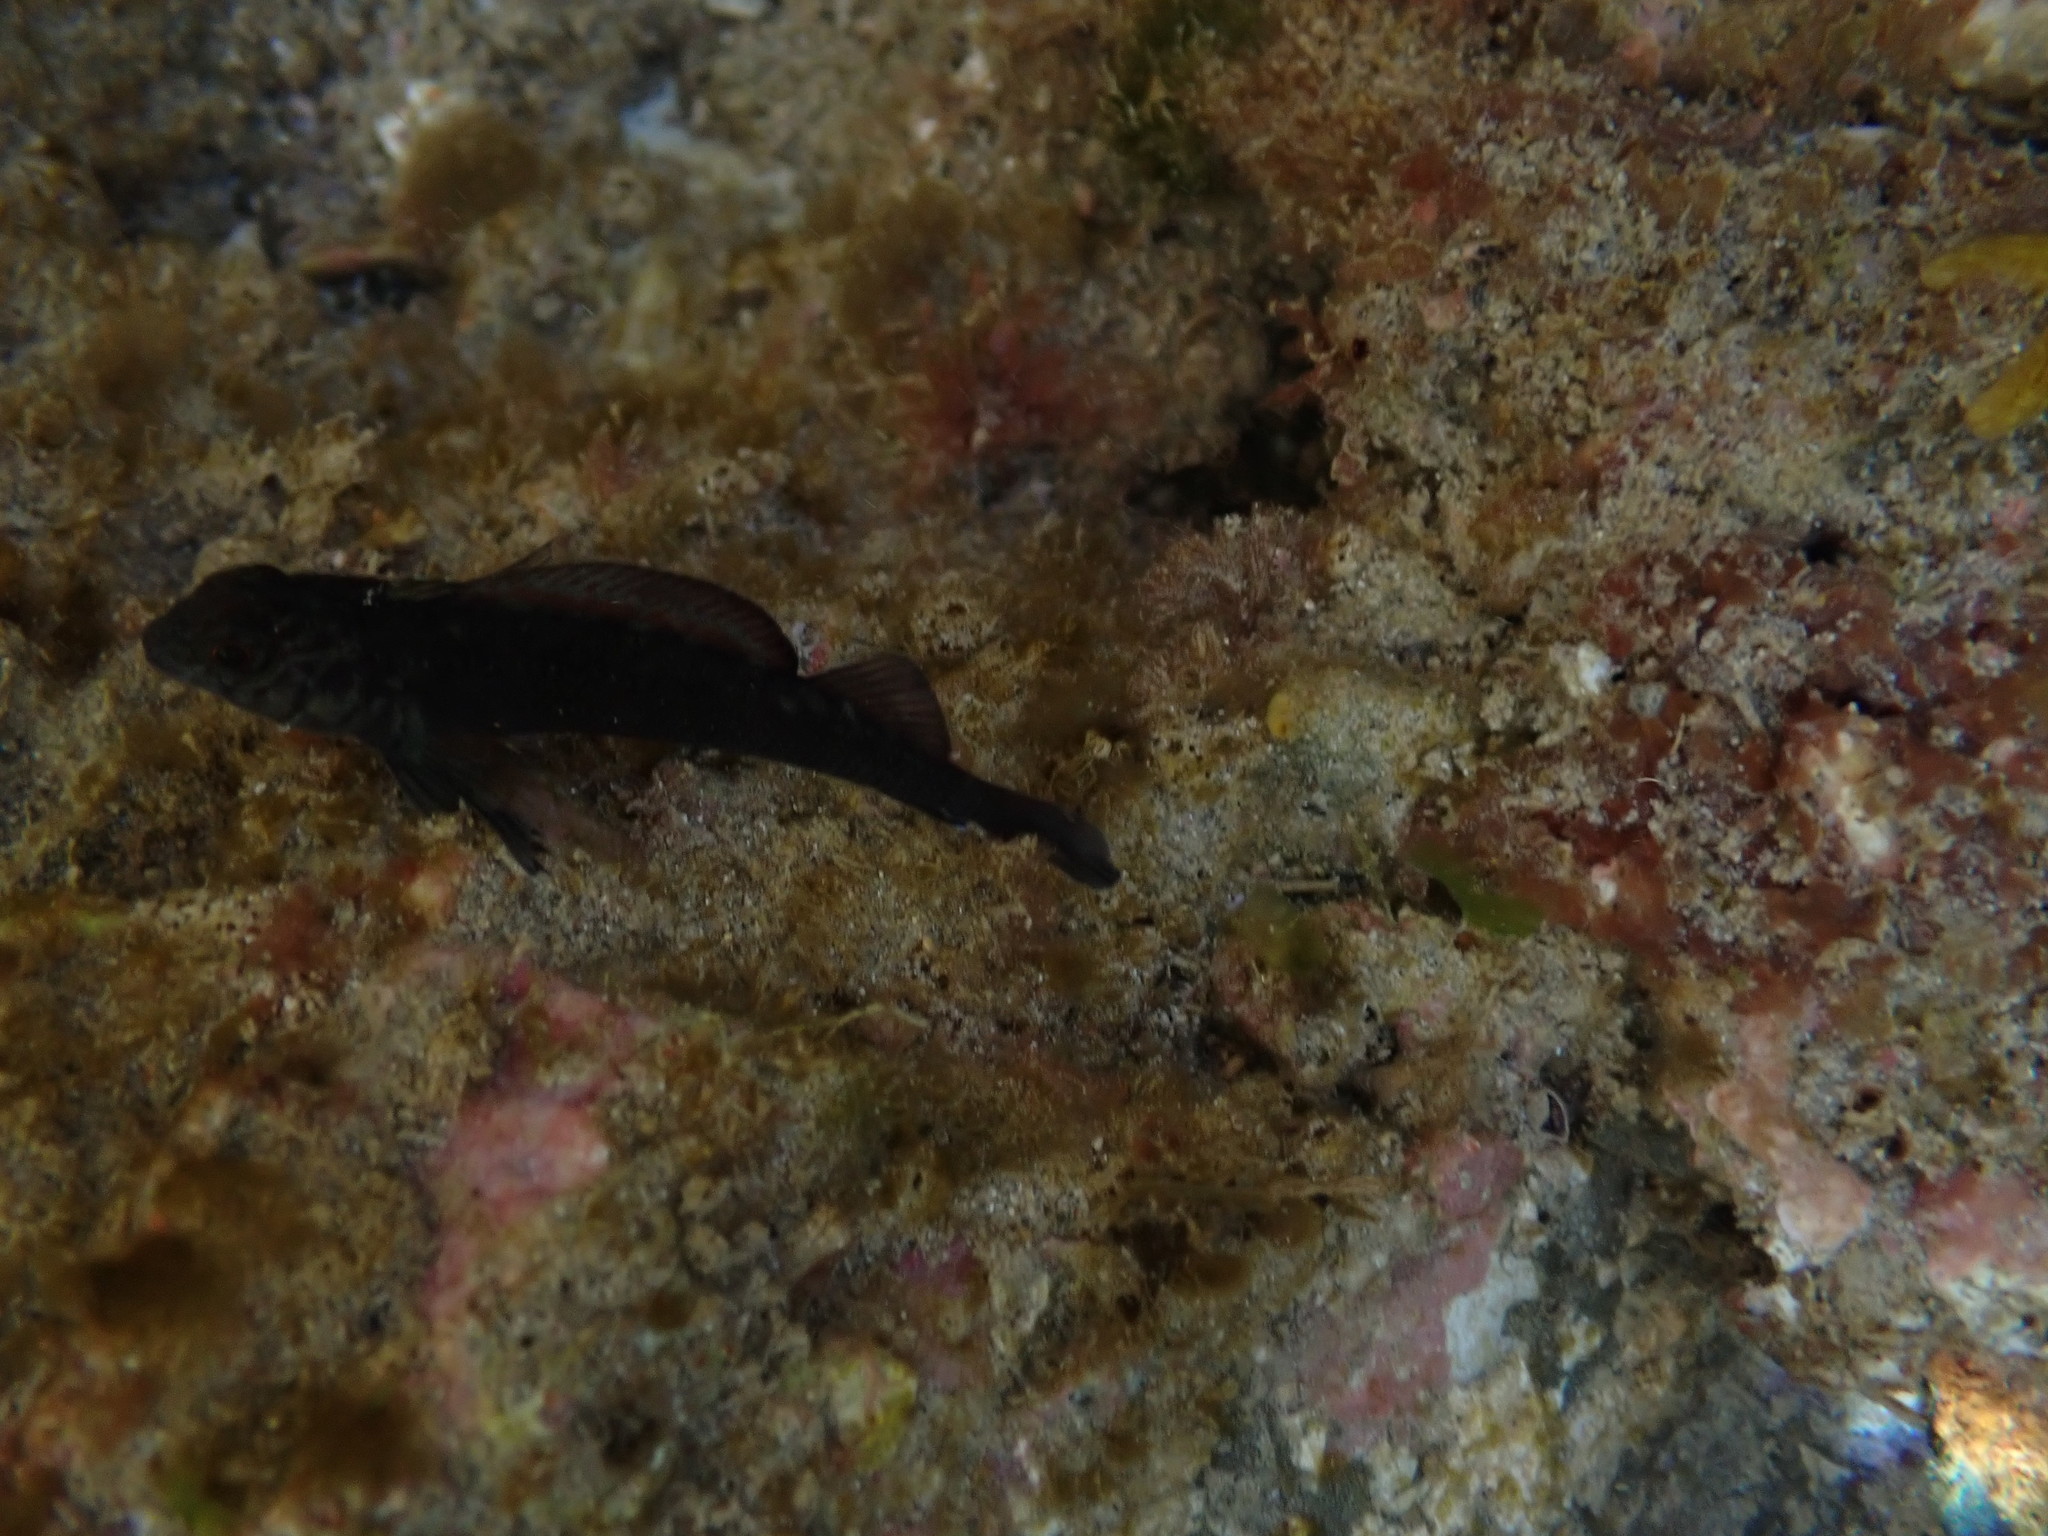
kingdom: Animalia
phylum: Chordata
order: Perciformes
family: Tripterygiidae
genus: Forsterygion
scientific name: Forsterygion lapillum
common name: Common triplefin
